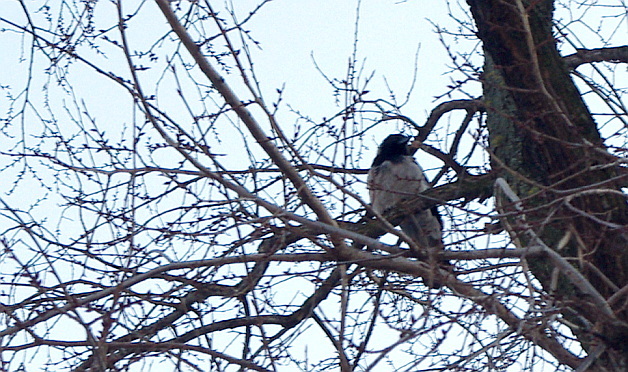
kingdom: Animalia
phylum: Chordata
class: Aves
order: Passeriformes
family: Corvidae
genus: Corvus
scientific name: Corvus cornix
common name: Hooded crow
